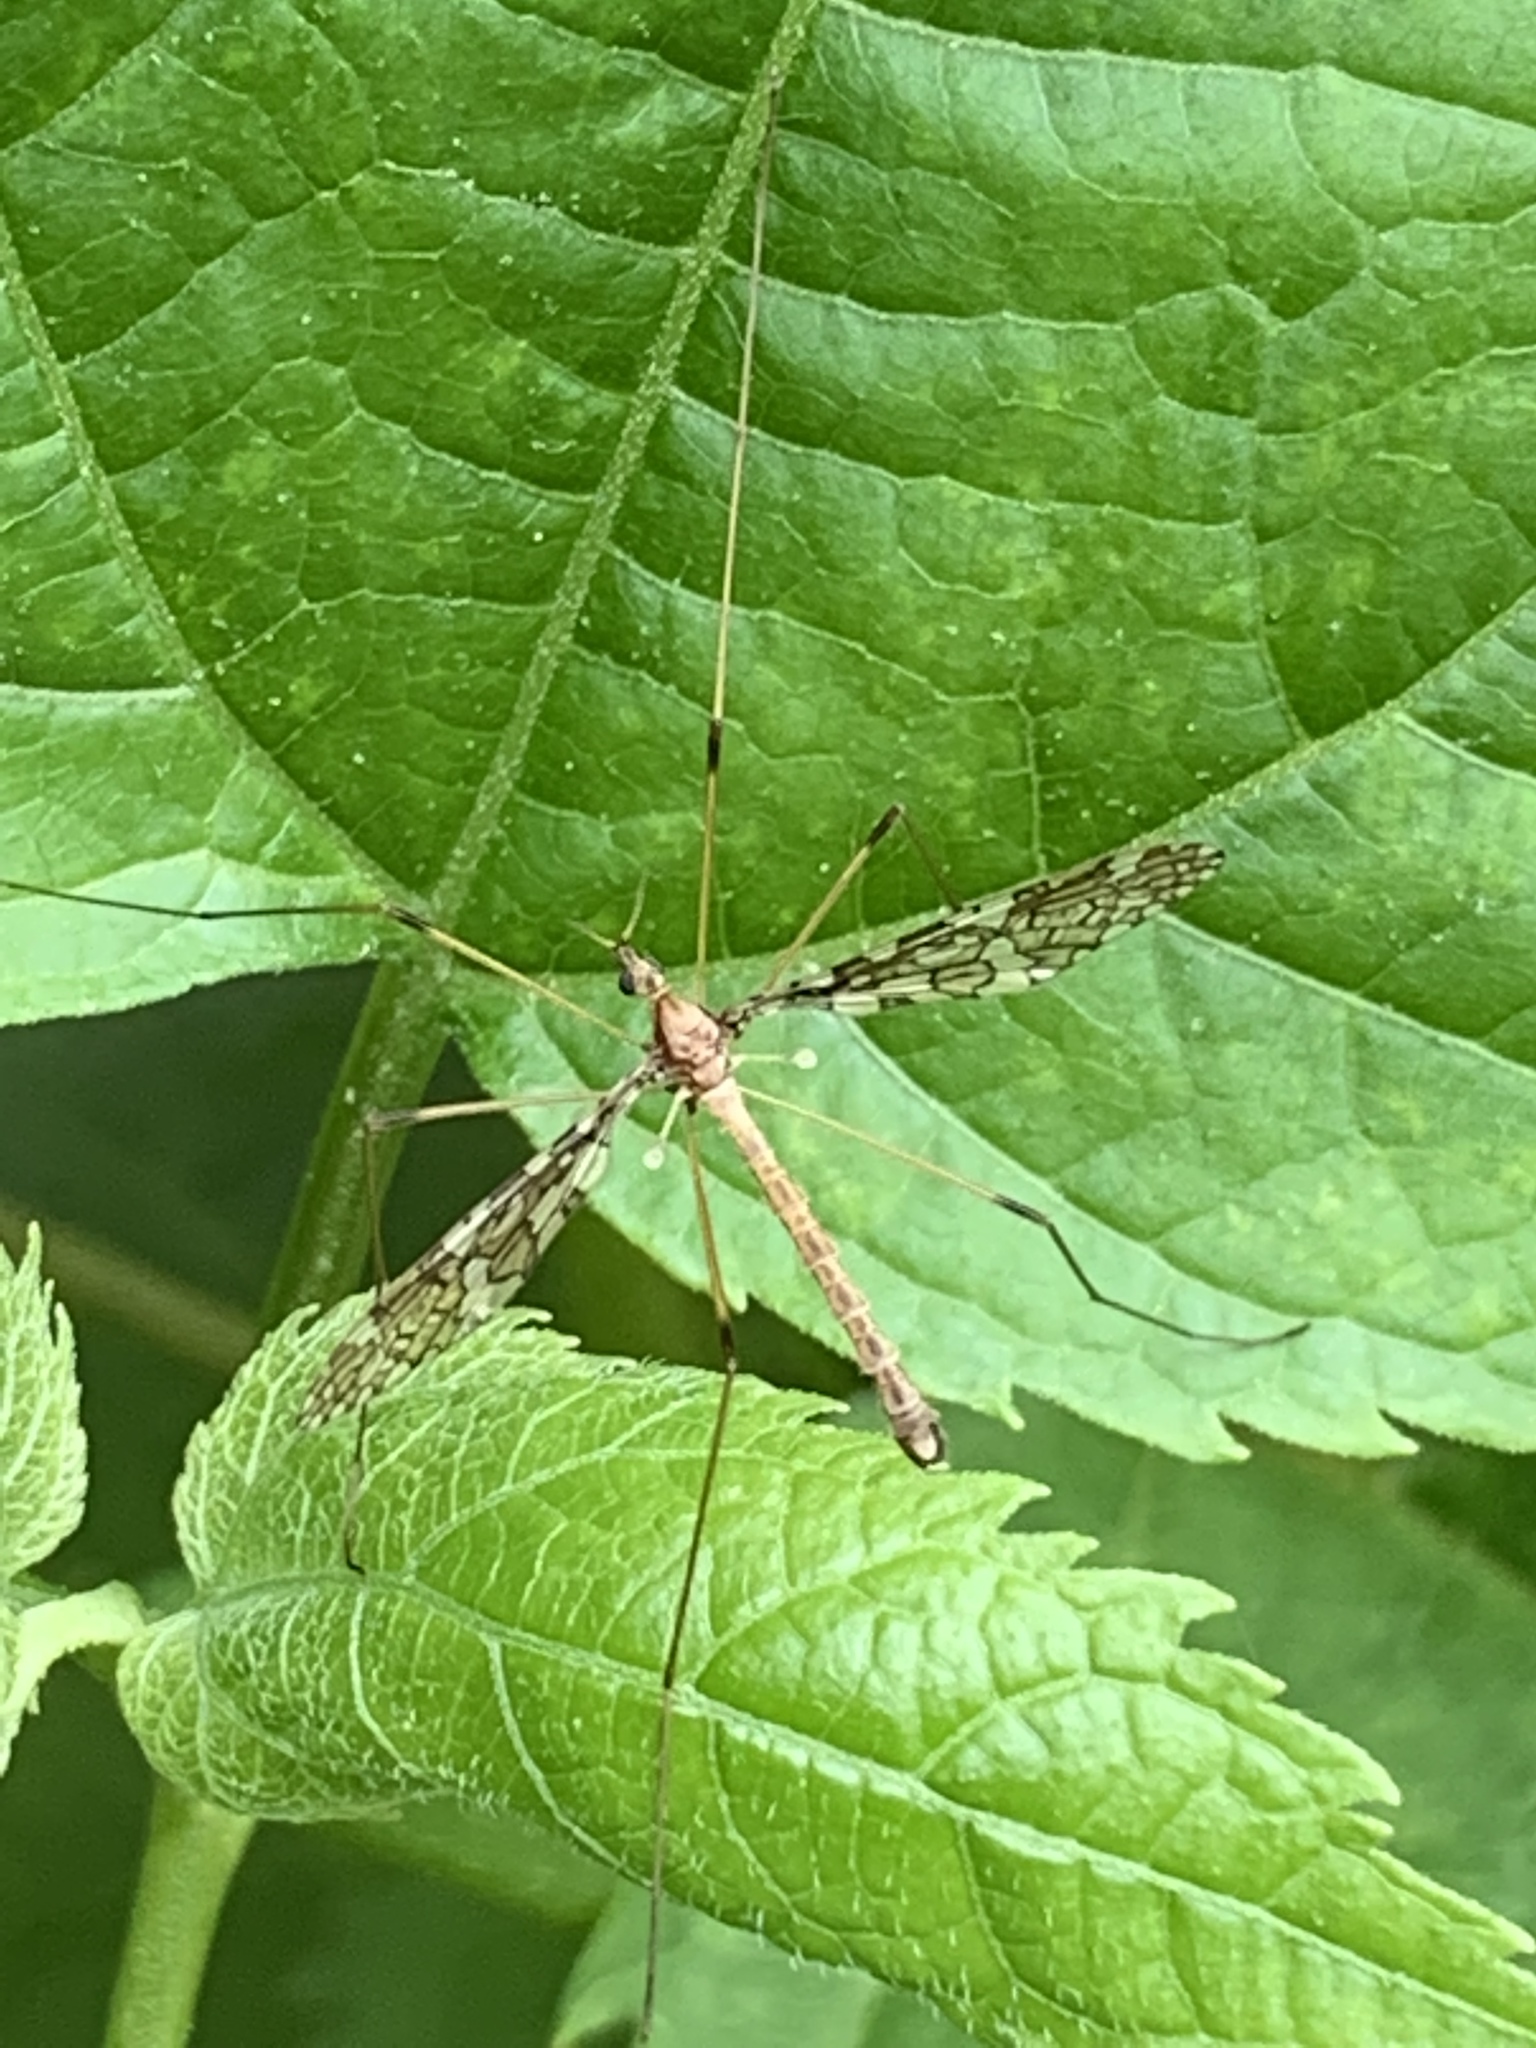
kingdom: Animalia
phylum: Arthropoda
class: Insecta
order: Diptera
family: Limoniidae
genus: Epiphragma
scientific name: Epiphragma fasciapenne
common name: Band-winged crane fly
